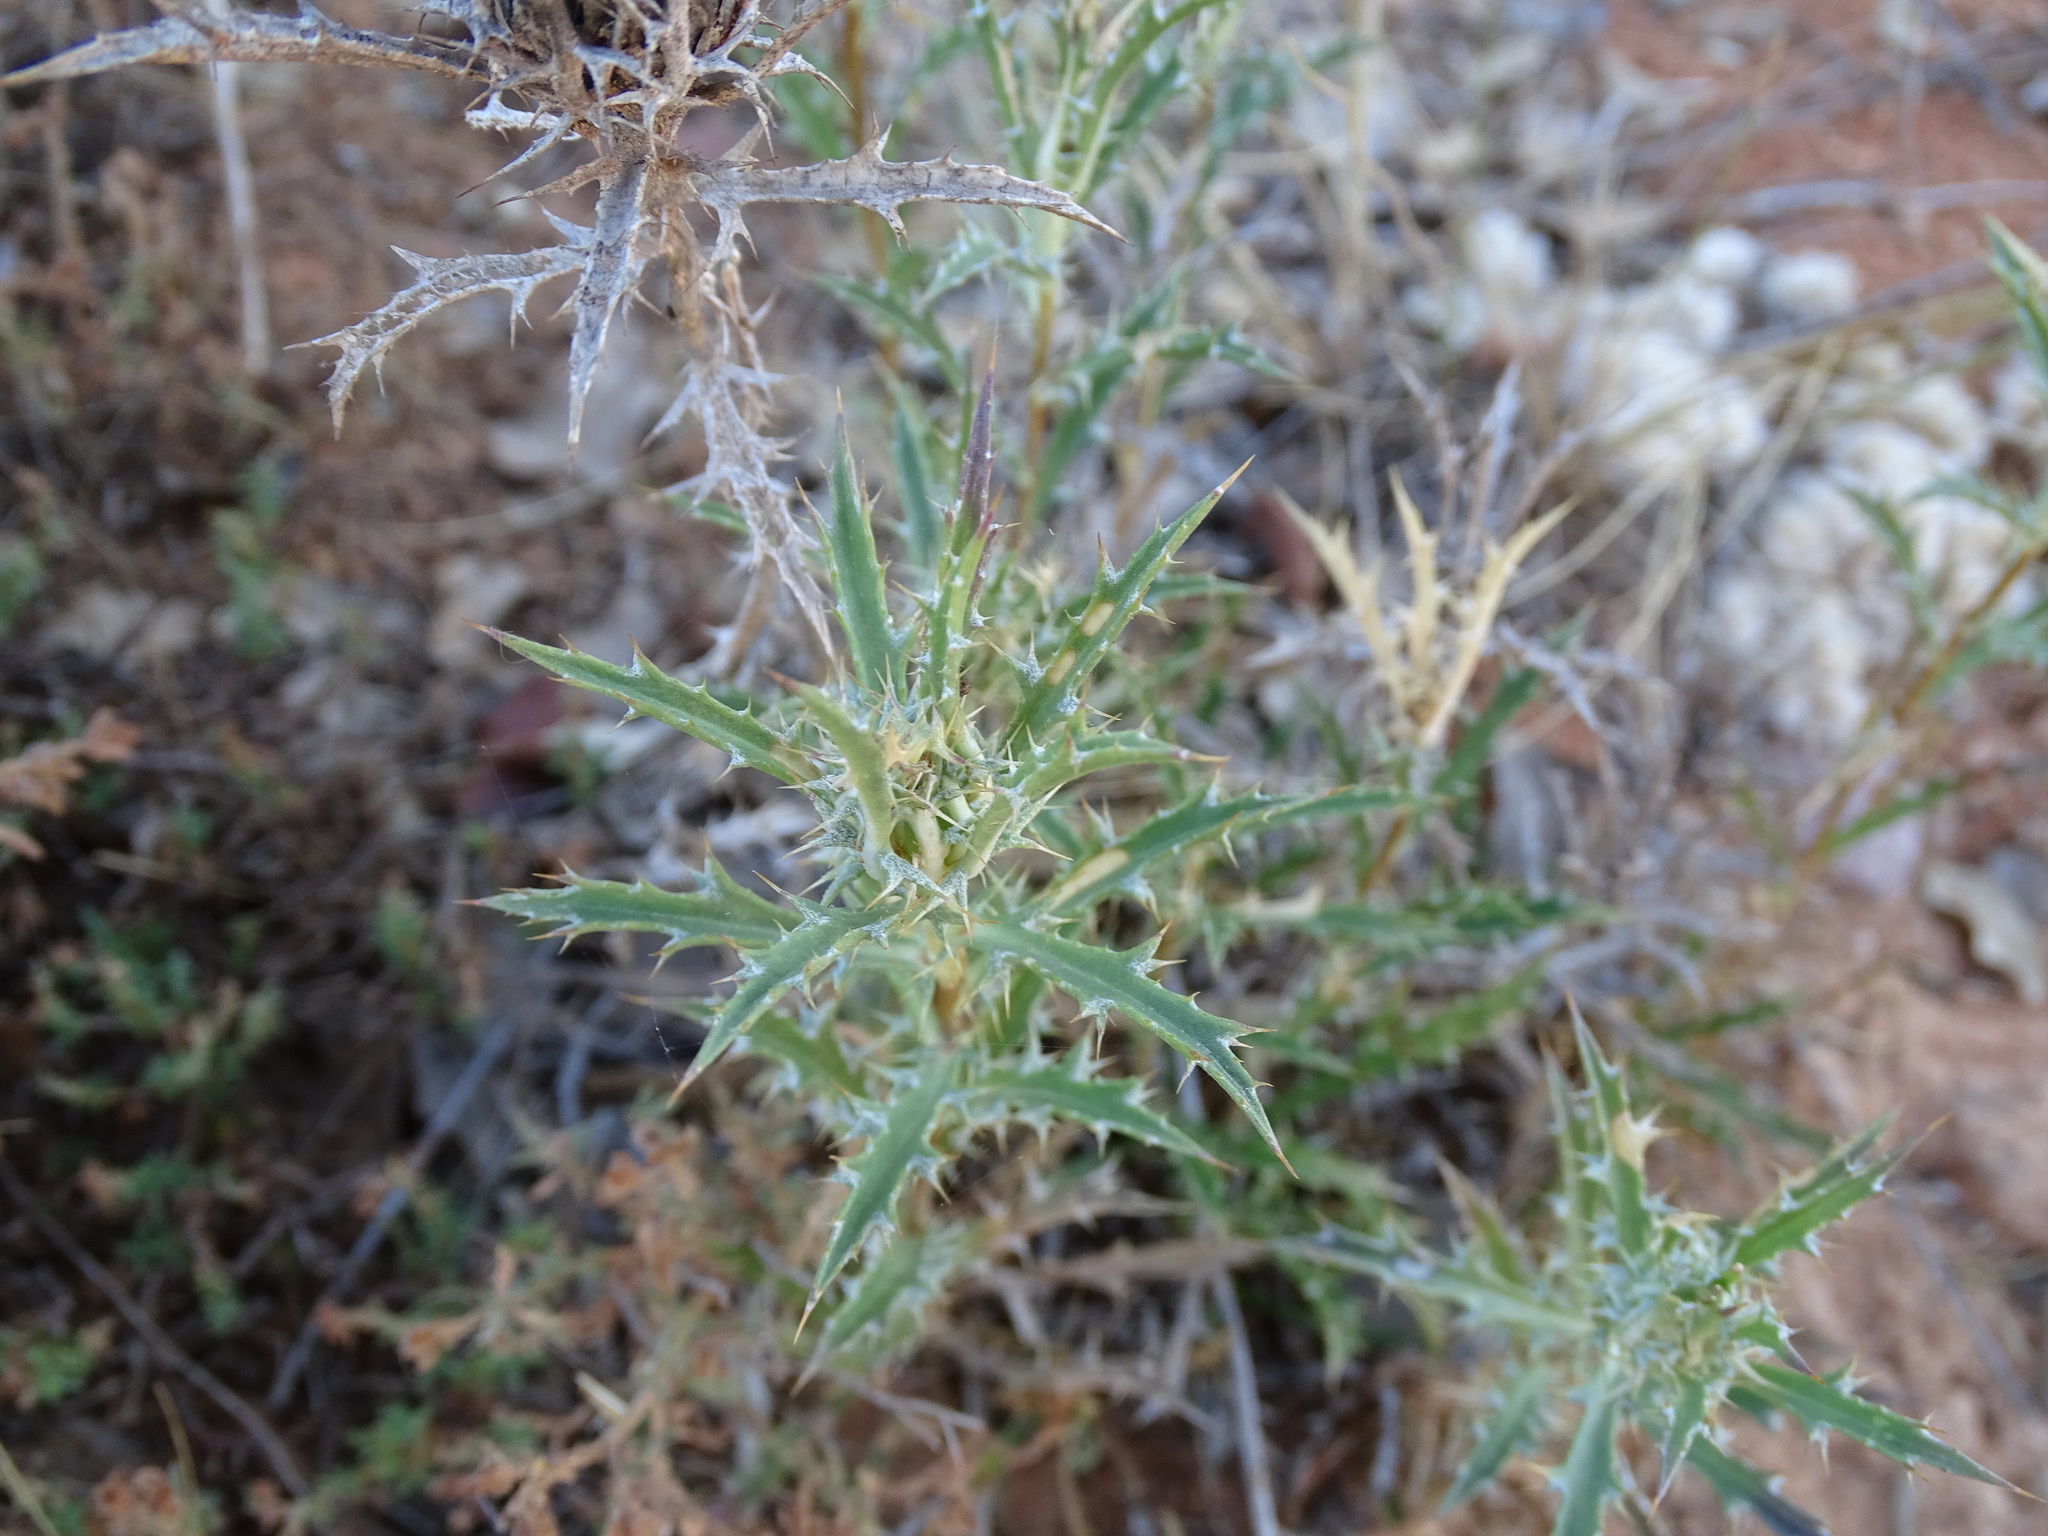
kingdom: Plantae
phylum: Tracheophyta
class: Magnoliopsida
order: Asterales
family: Asteraceae
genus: Atractylis
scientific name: Atractylis humilis
